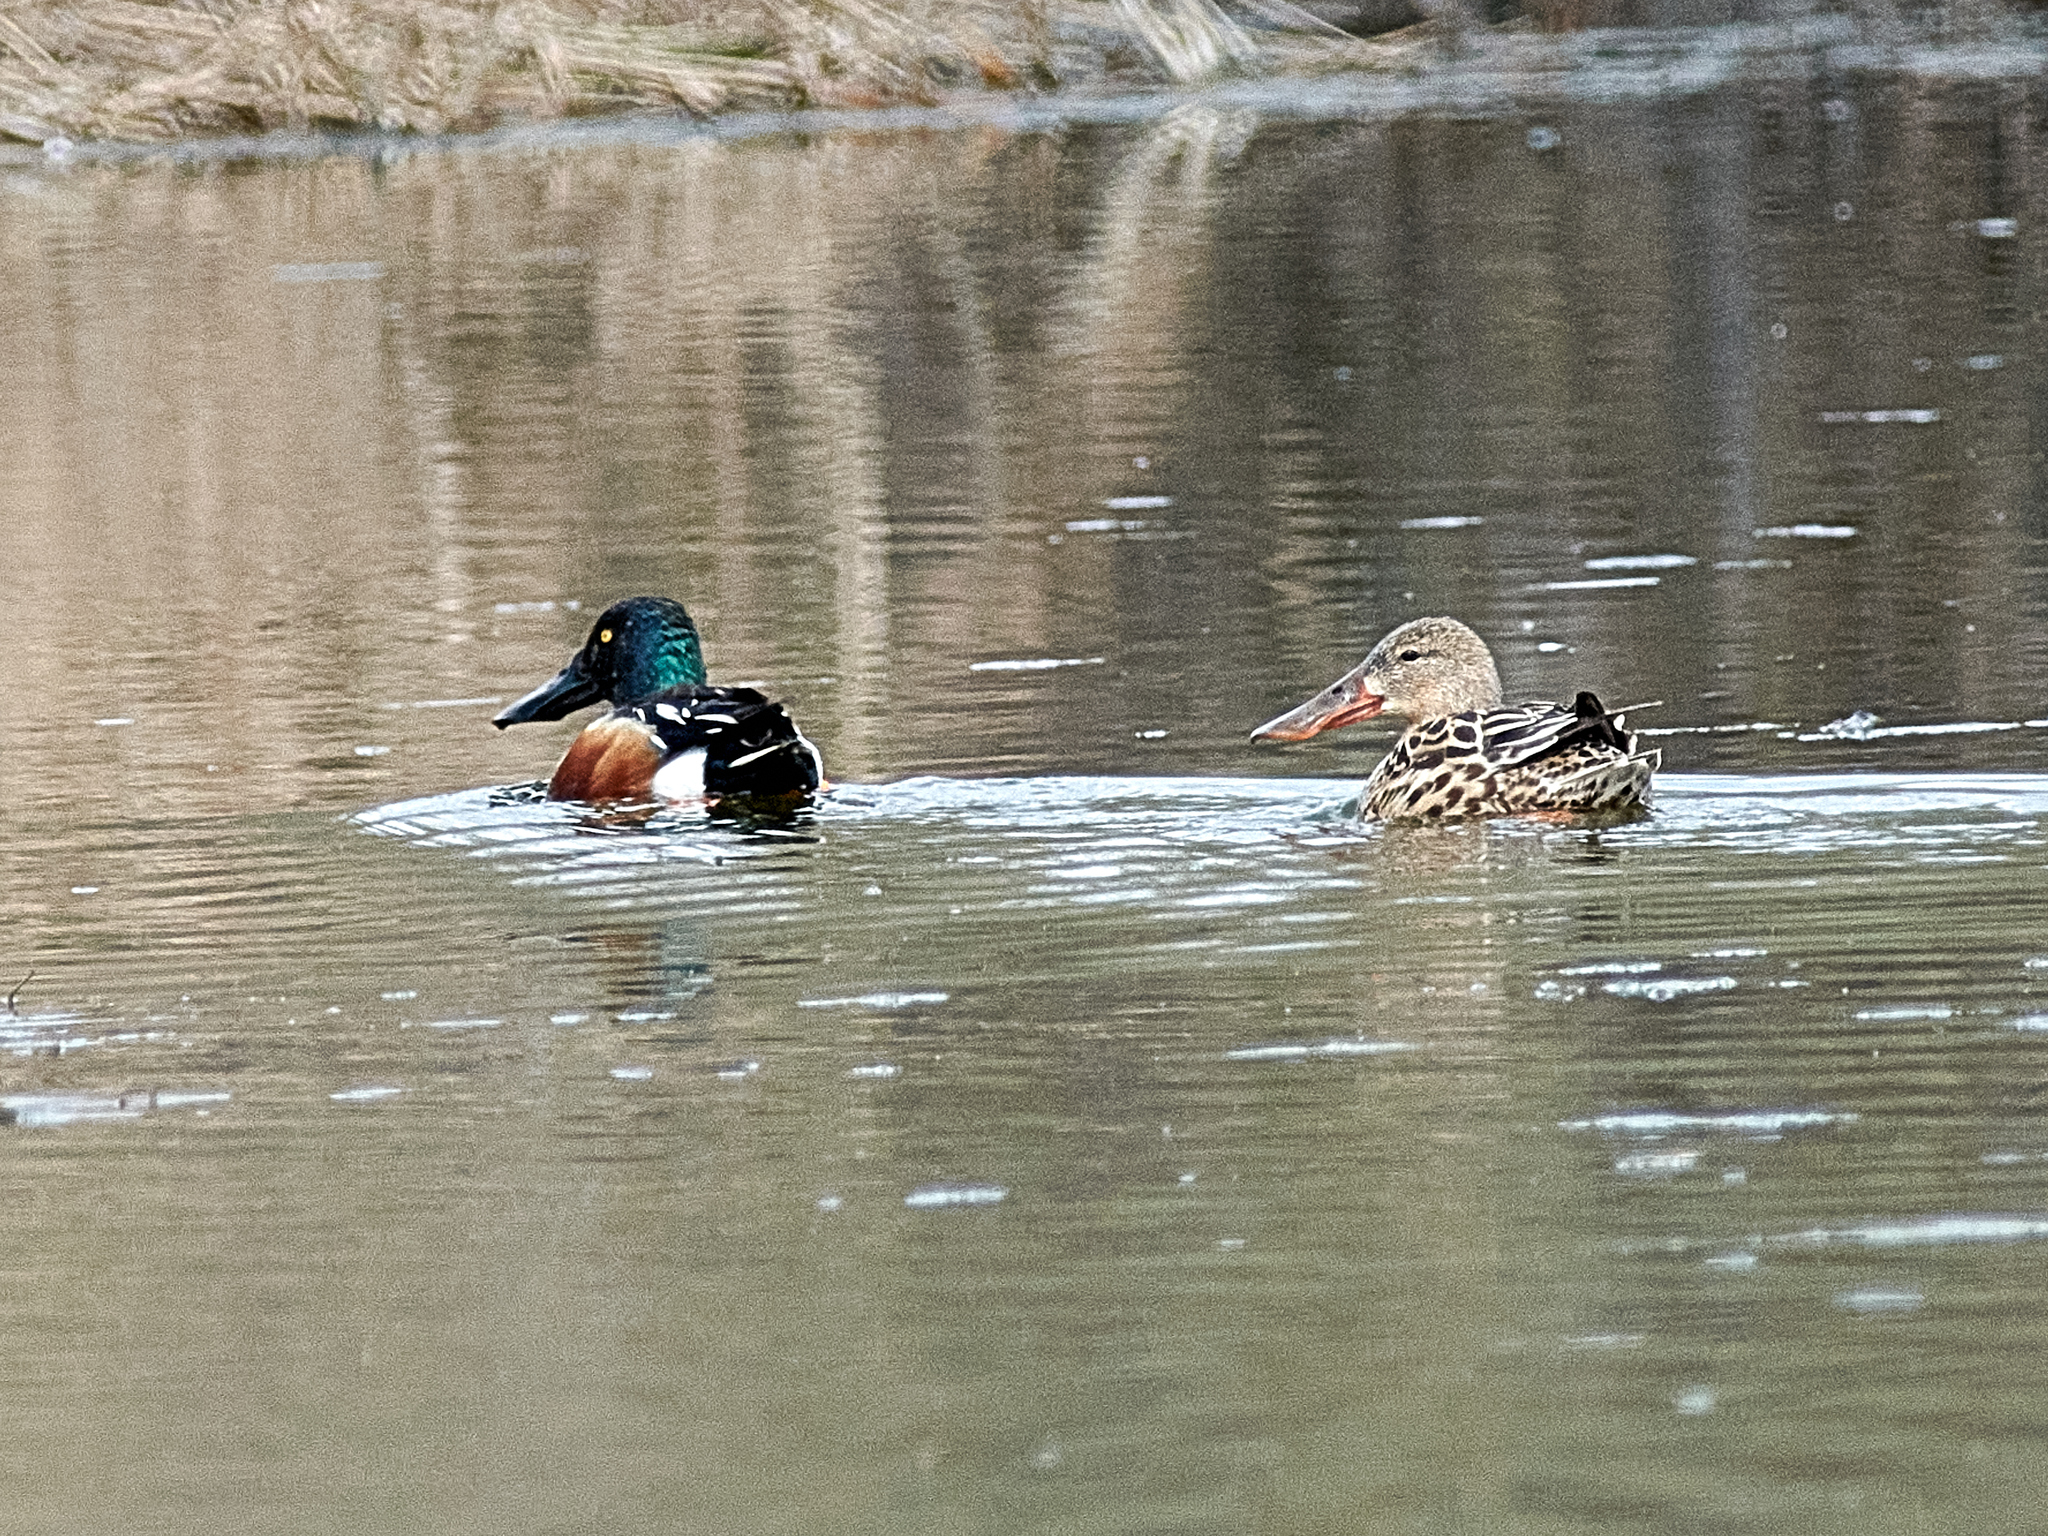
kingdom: Animalia
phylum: Chordata
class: Aves
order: Anseriformes
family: Anatidae
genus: Spatula
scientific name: Spatula clypeata
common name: Northern shoveler
